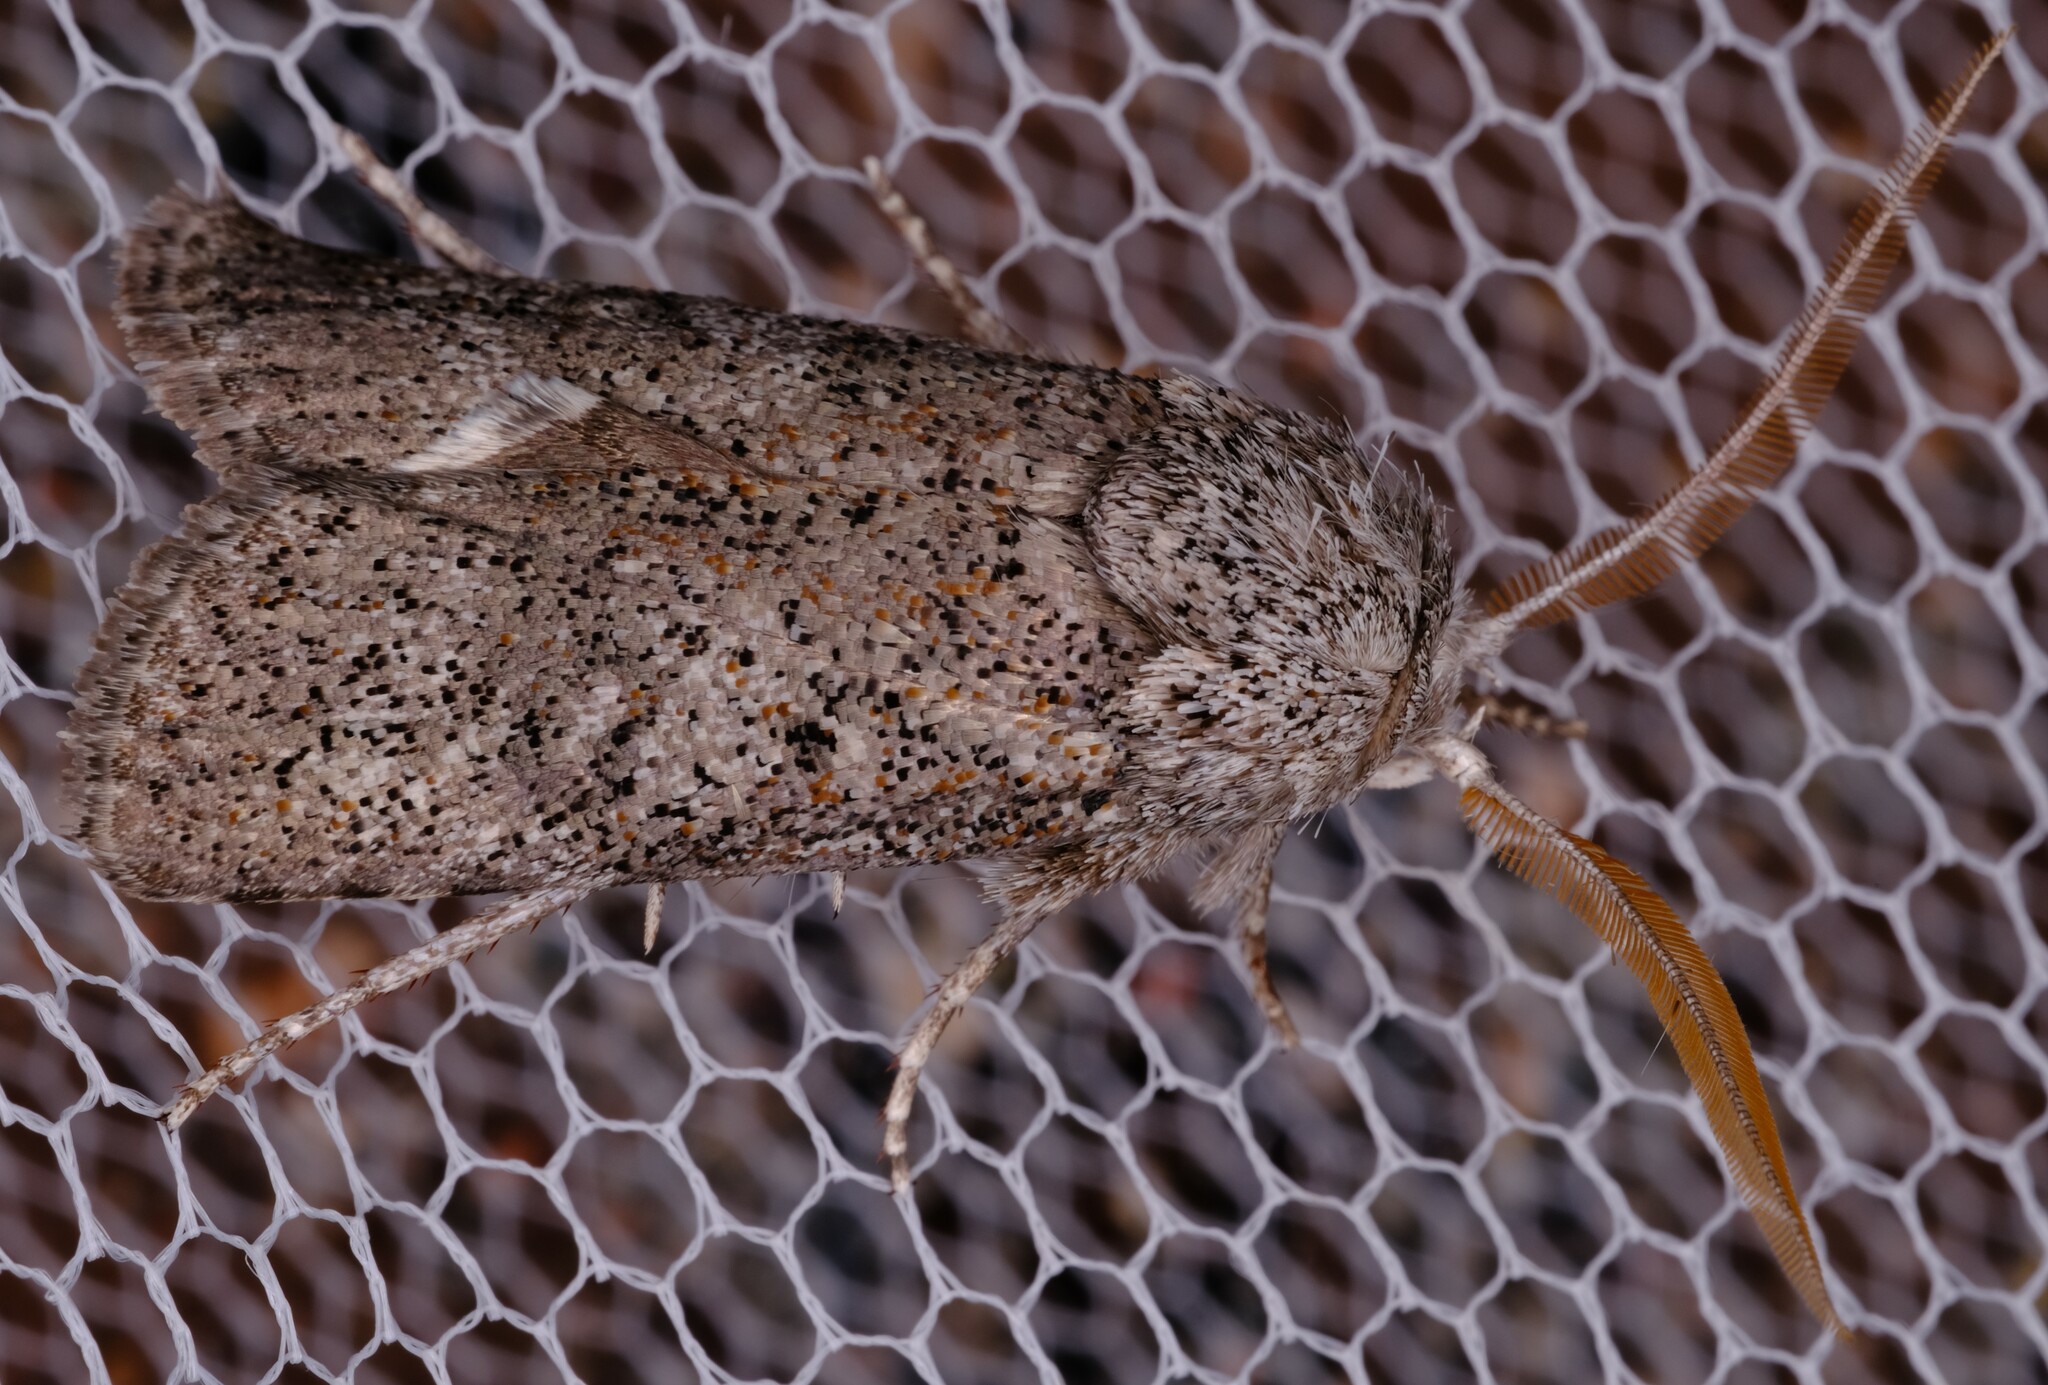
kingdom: Animalia
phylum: Arthropoda
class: Insecta
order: Lepidoptera
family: Xyloryctidae
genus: Cryptophasa
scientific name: Cryptophasa irrorata
